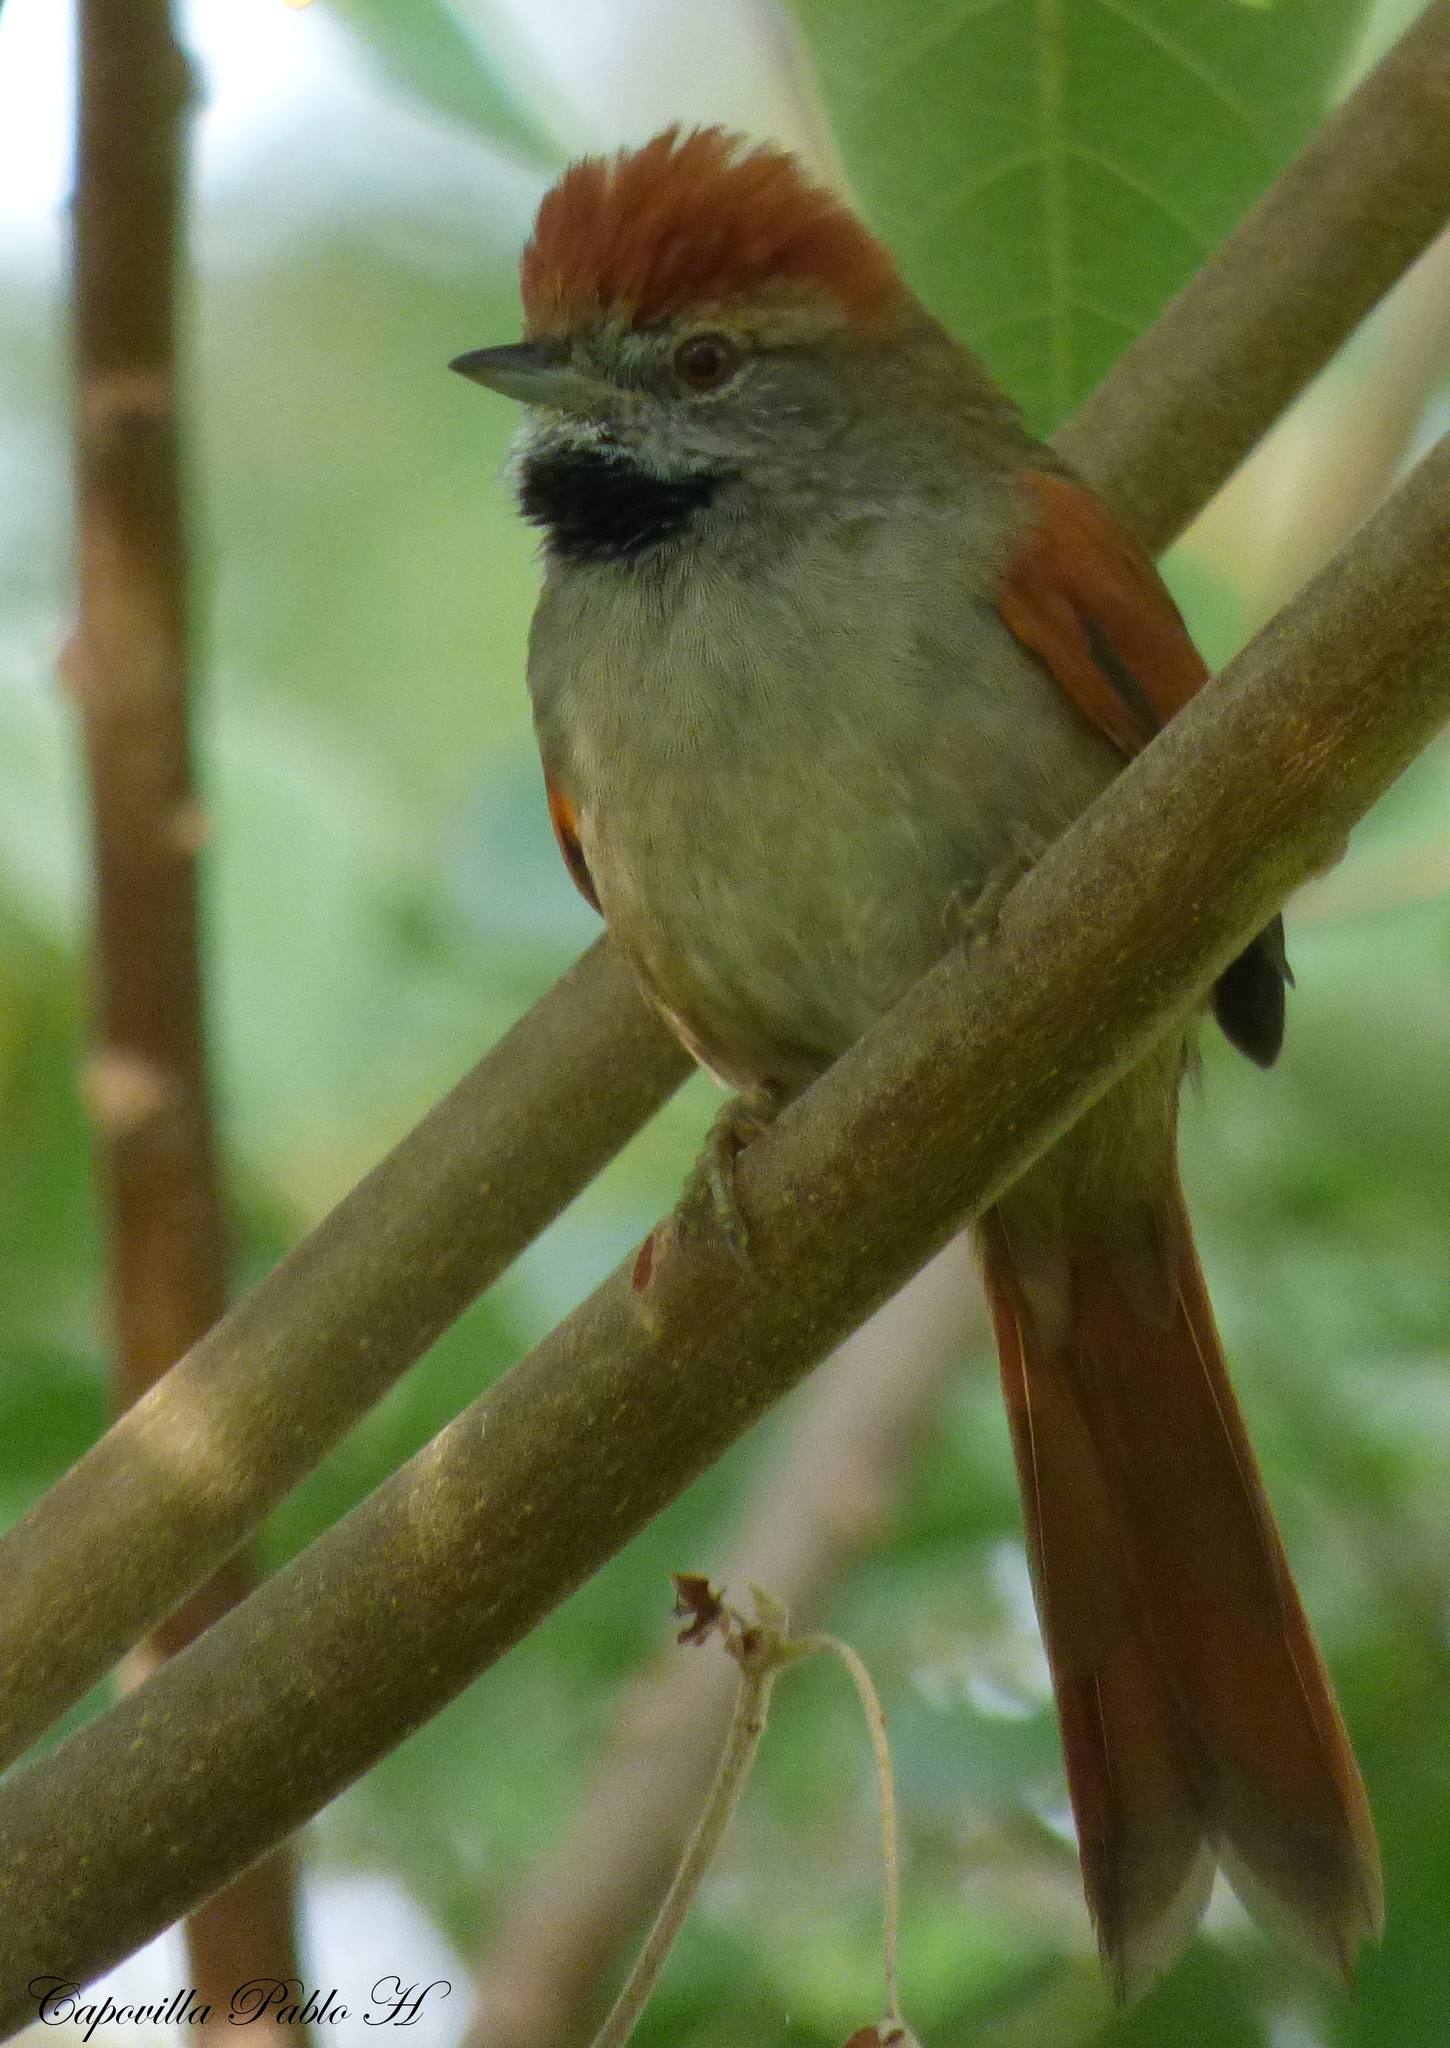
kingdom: Animalia
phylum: Chordata
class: Aves
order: Passeriformes
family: Furnariidae
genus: Synallaxis
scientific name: Synallaxis frontalis
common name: Sooty-fronted spinetail
